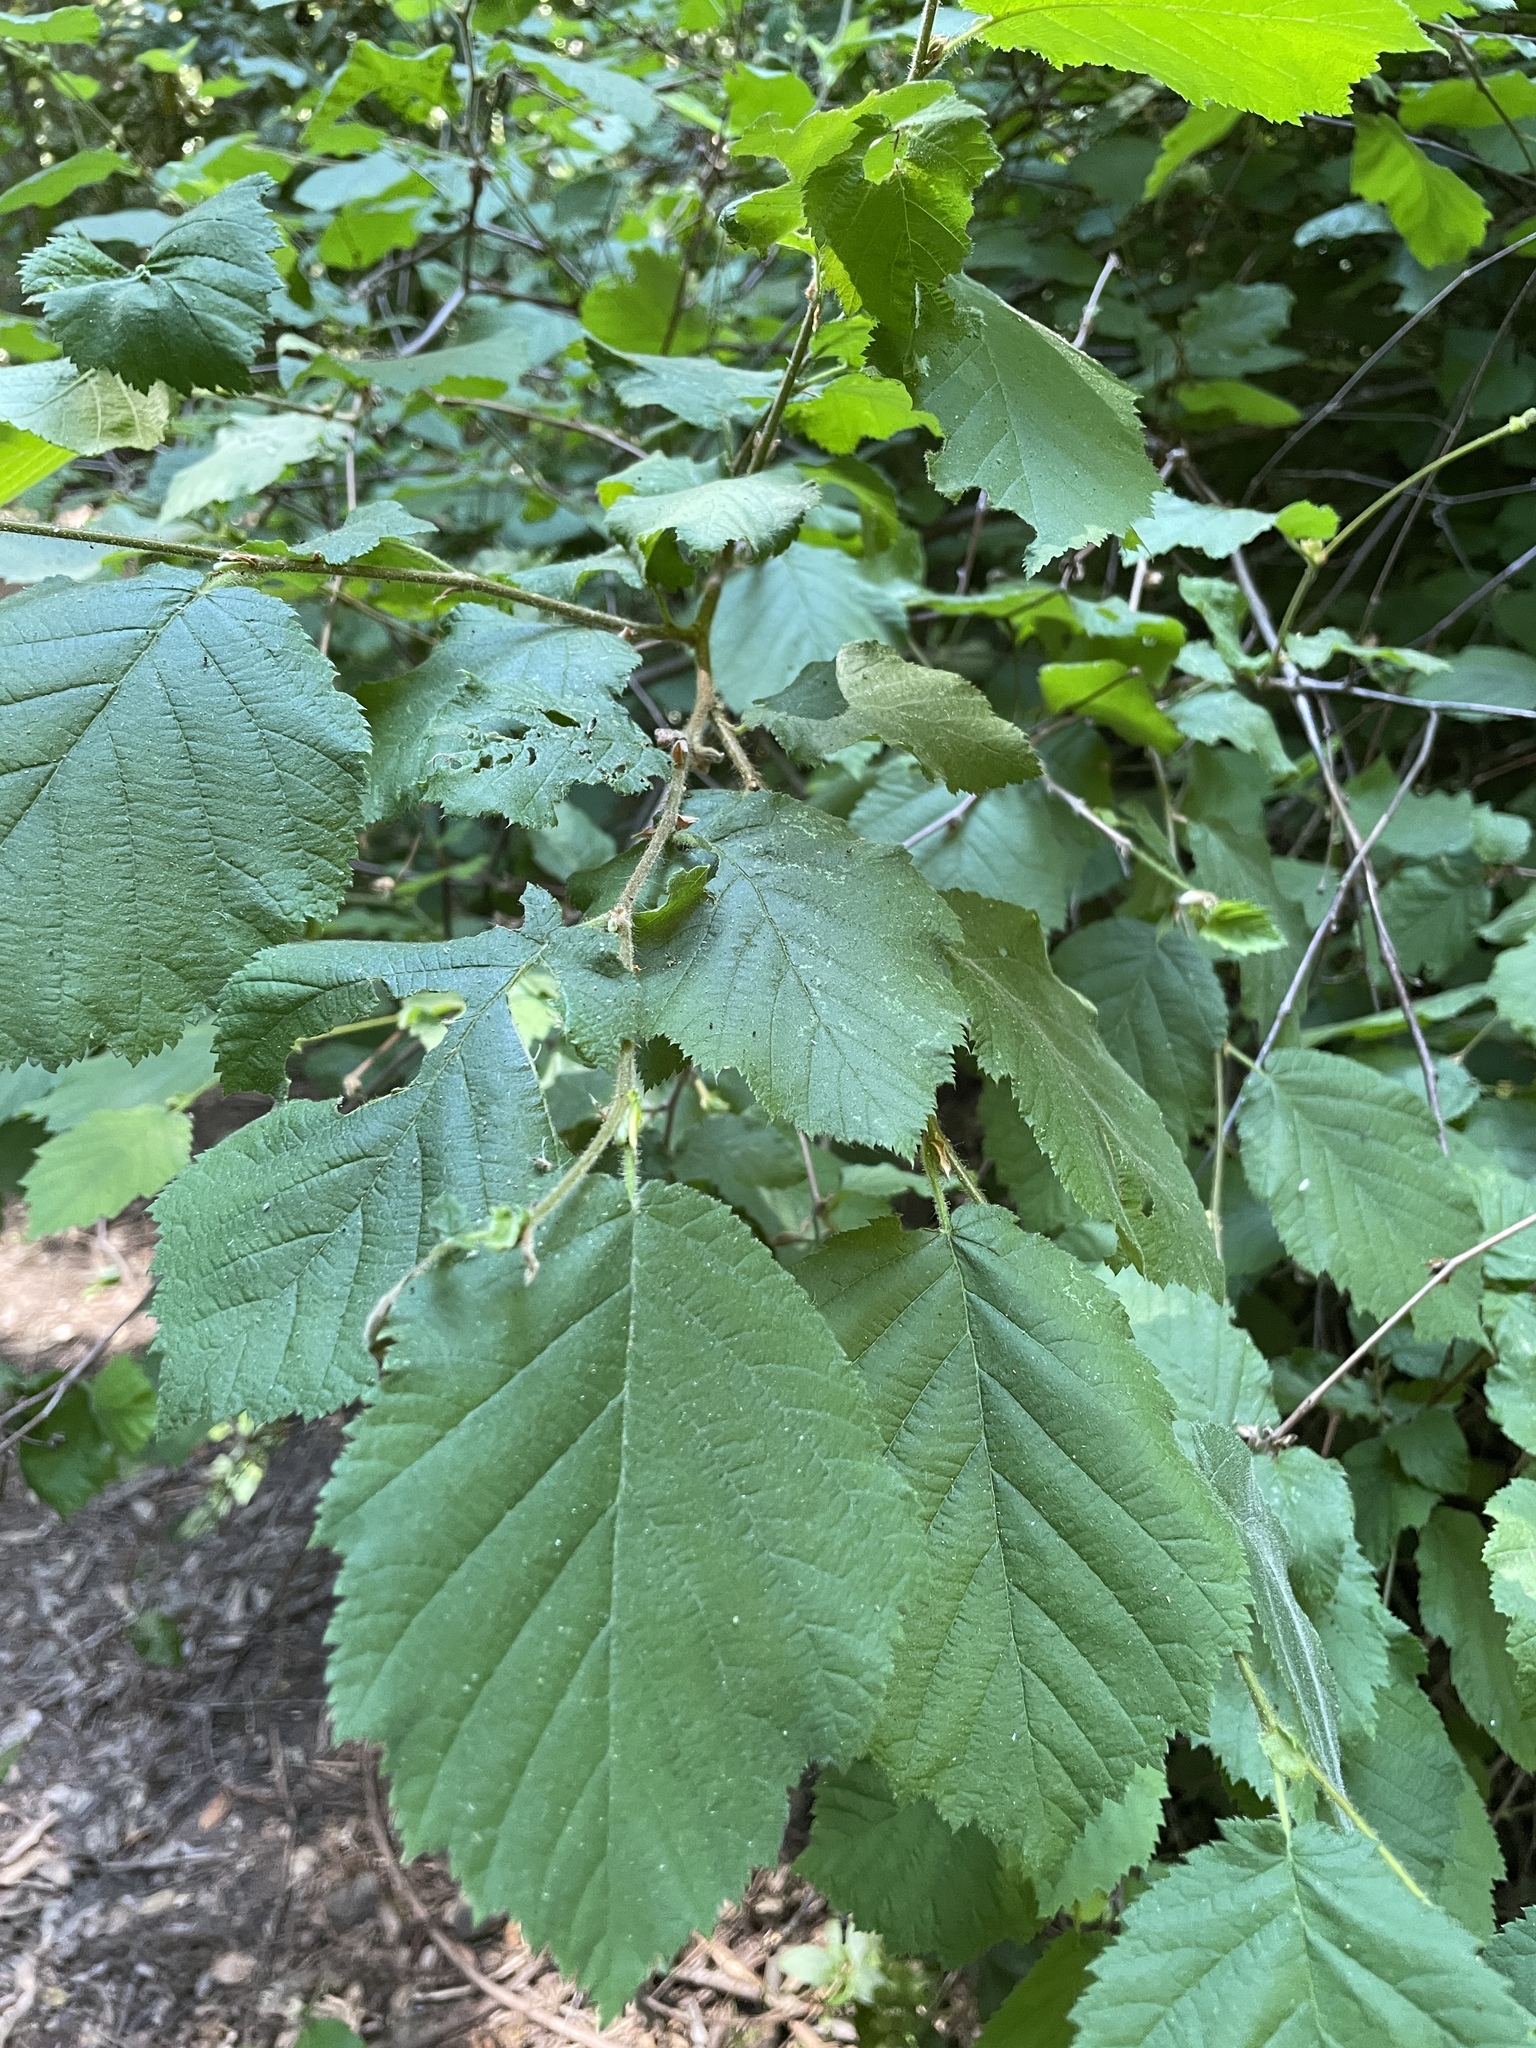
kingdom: Plantae
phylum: Tracheophyta
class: Magnoliopsida
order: Fagales
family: Betulaceae
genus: Corylus
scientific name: Corylus cornuta
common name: Beaked hazel
